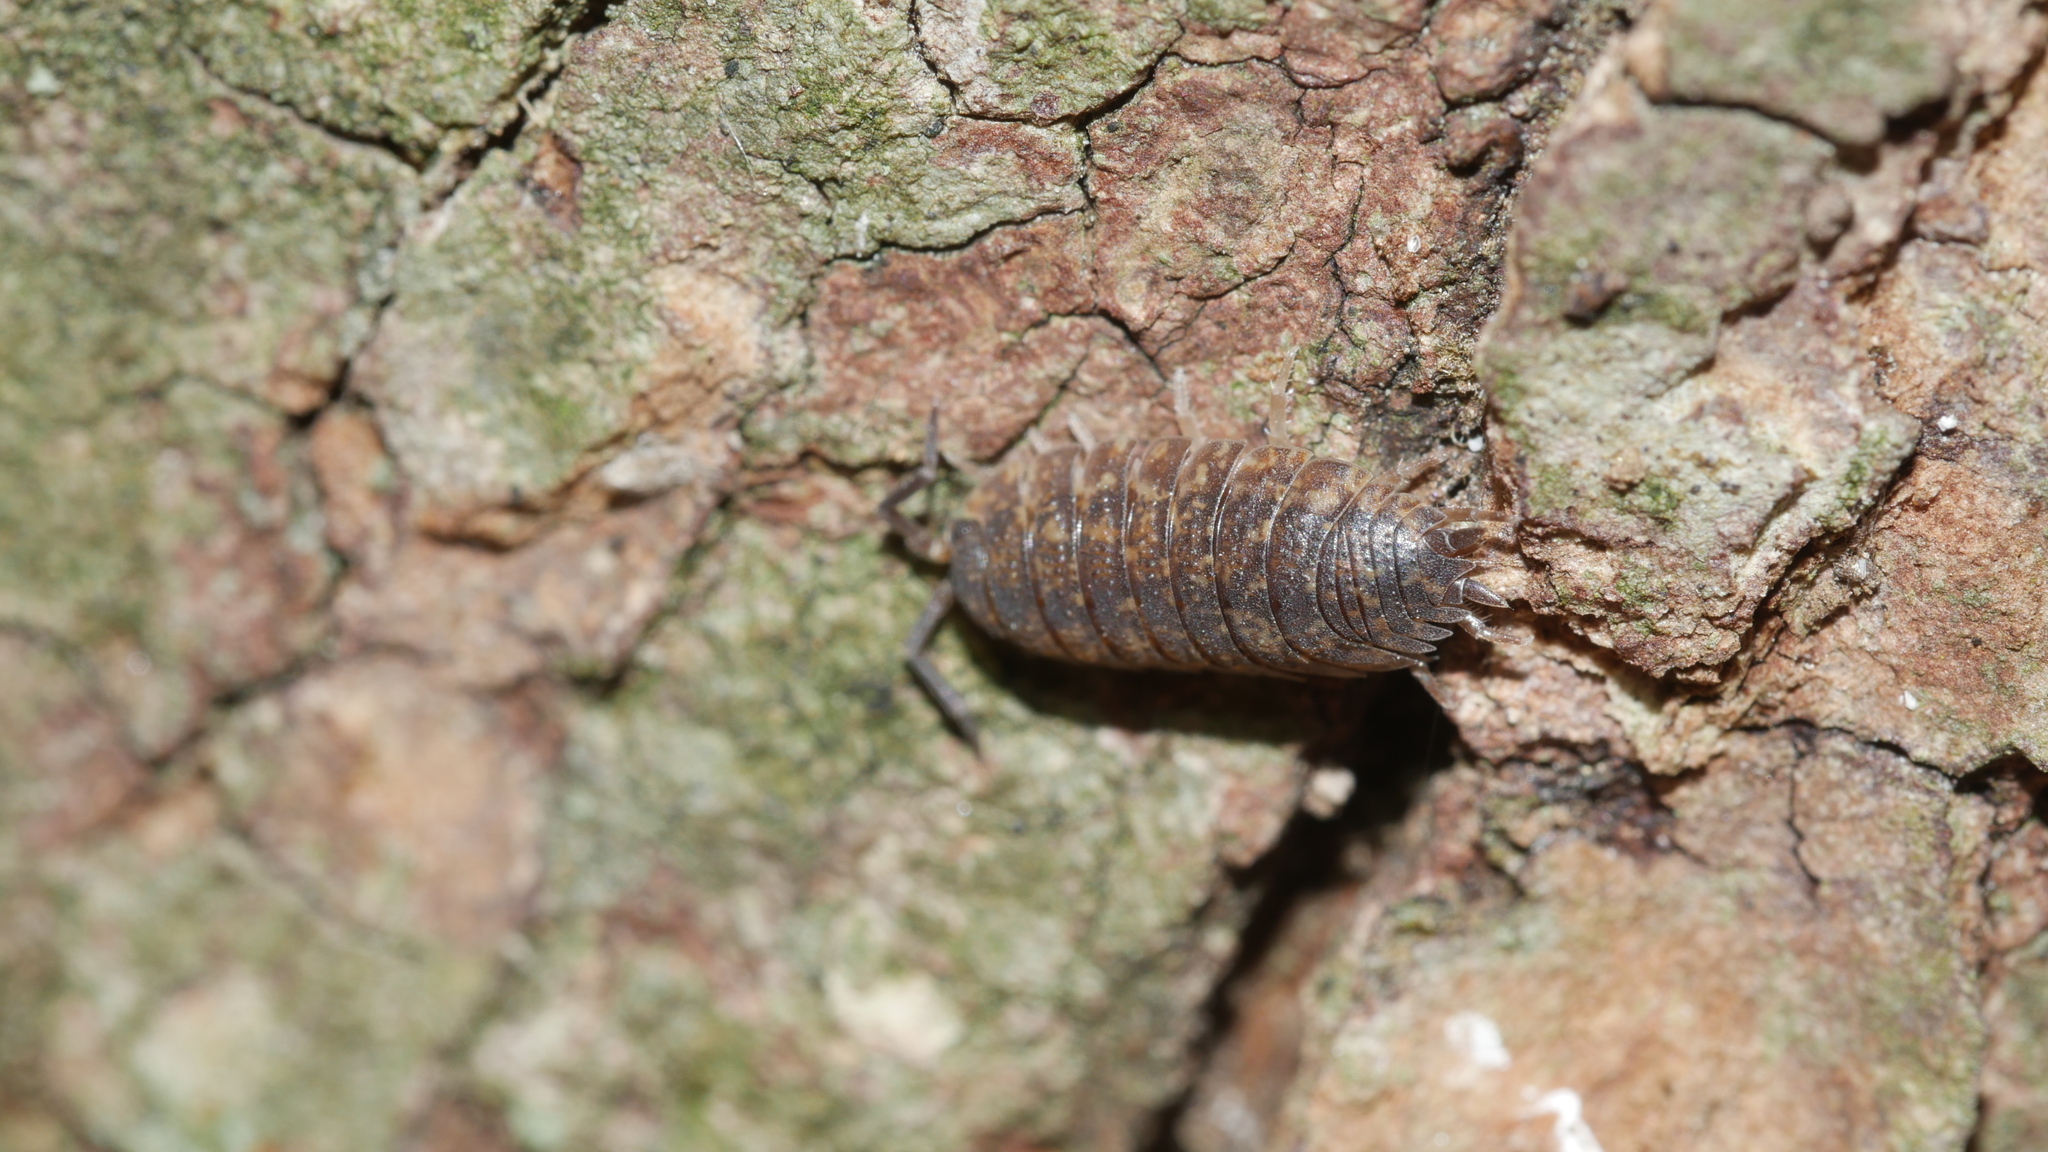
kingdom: Animalia
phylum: Arthropoda
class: Malacostraca
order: Isopoda
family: Porcellionidae
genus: Porcellio
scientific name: Porcellio scaber
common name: Common rough woodlouse
